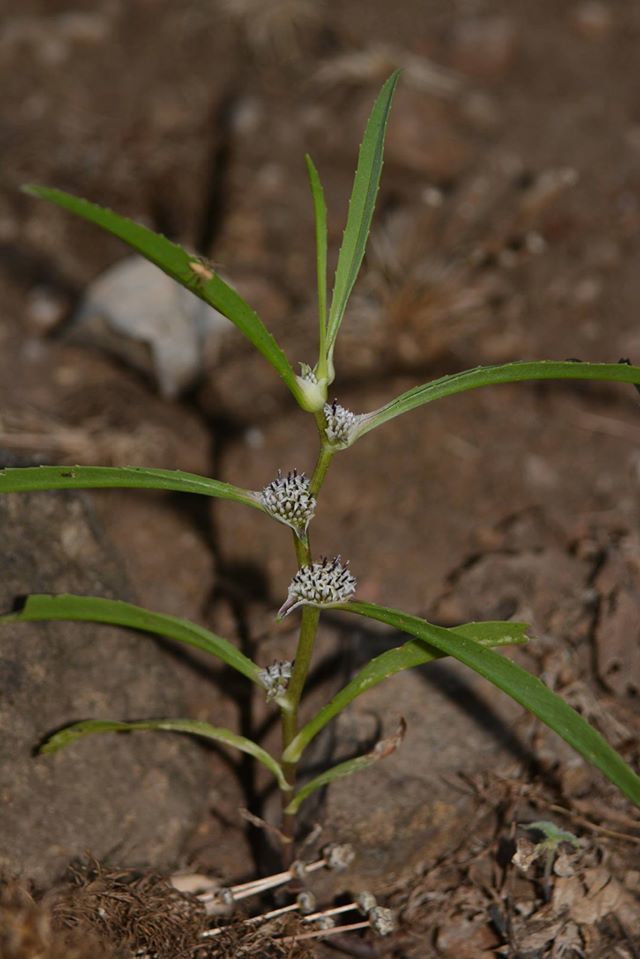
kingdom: Plantae
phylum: Tracheophyta
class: Magnoliopsida
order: Asterales
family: Asteraceae
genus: Caesulia
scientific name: Caesulia axillaris
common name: Pink node flower
